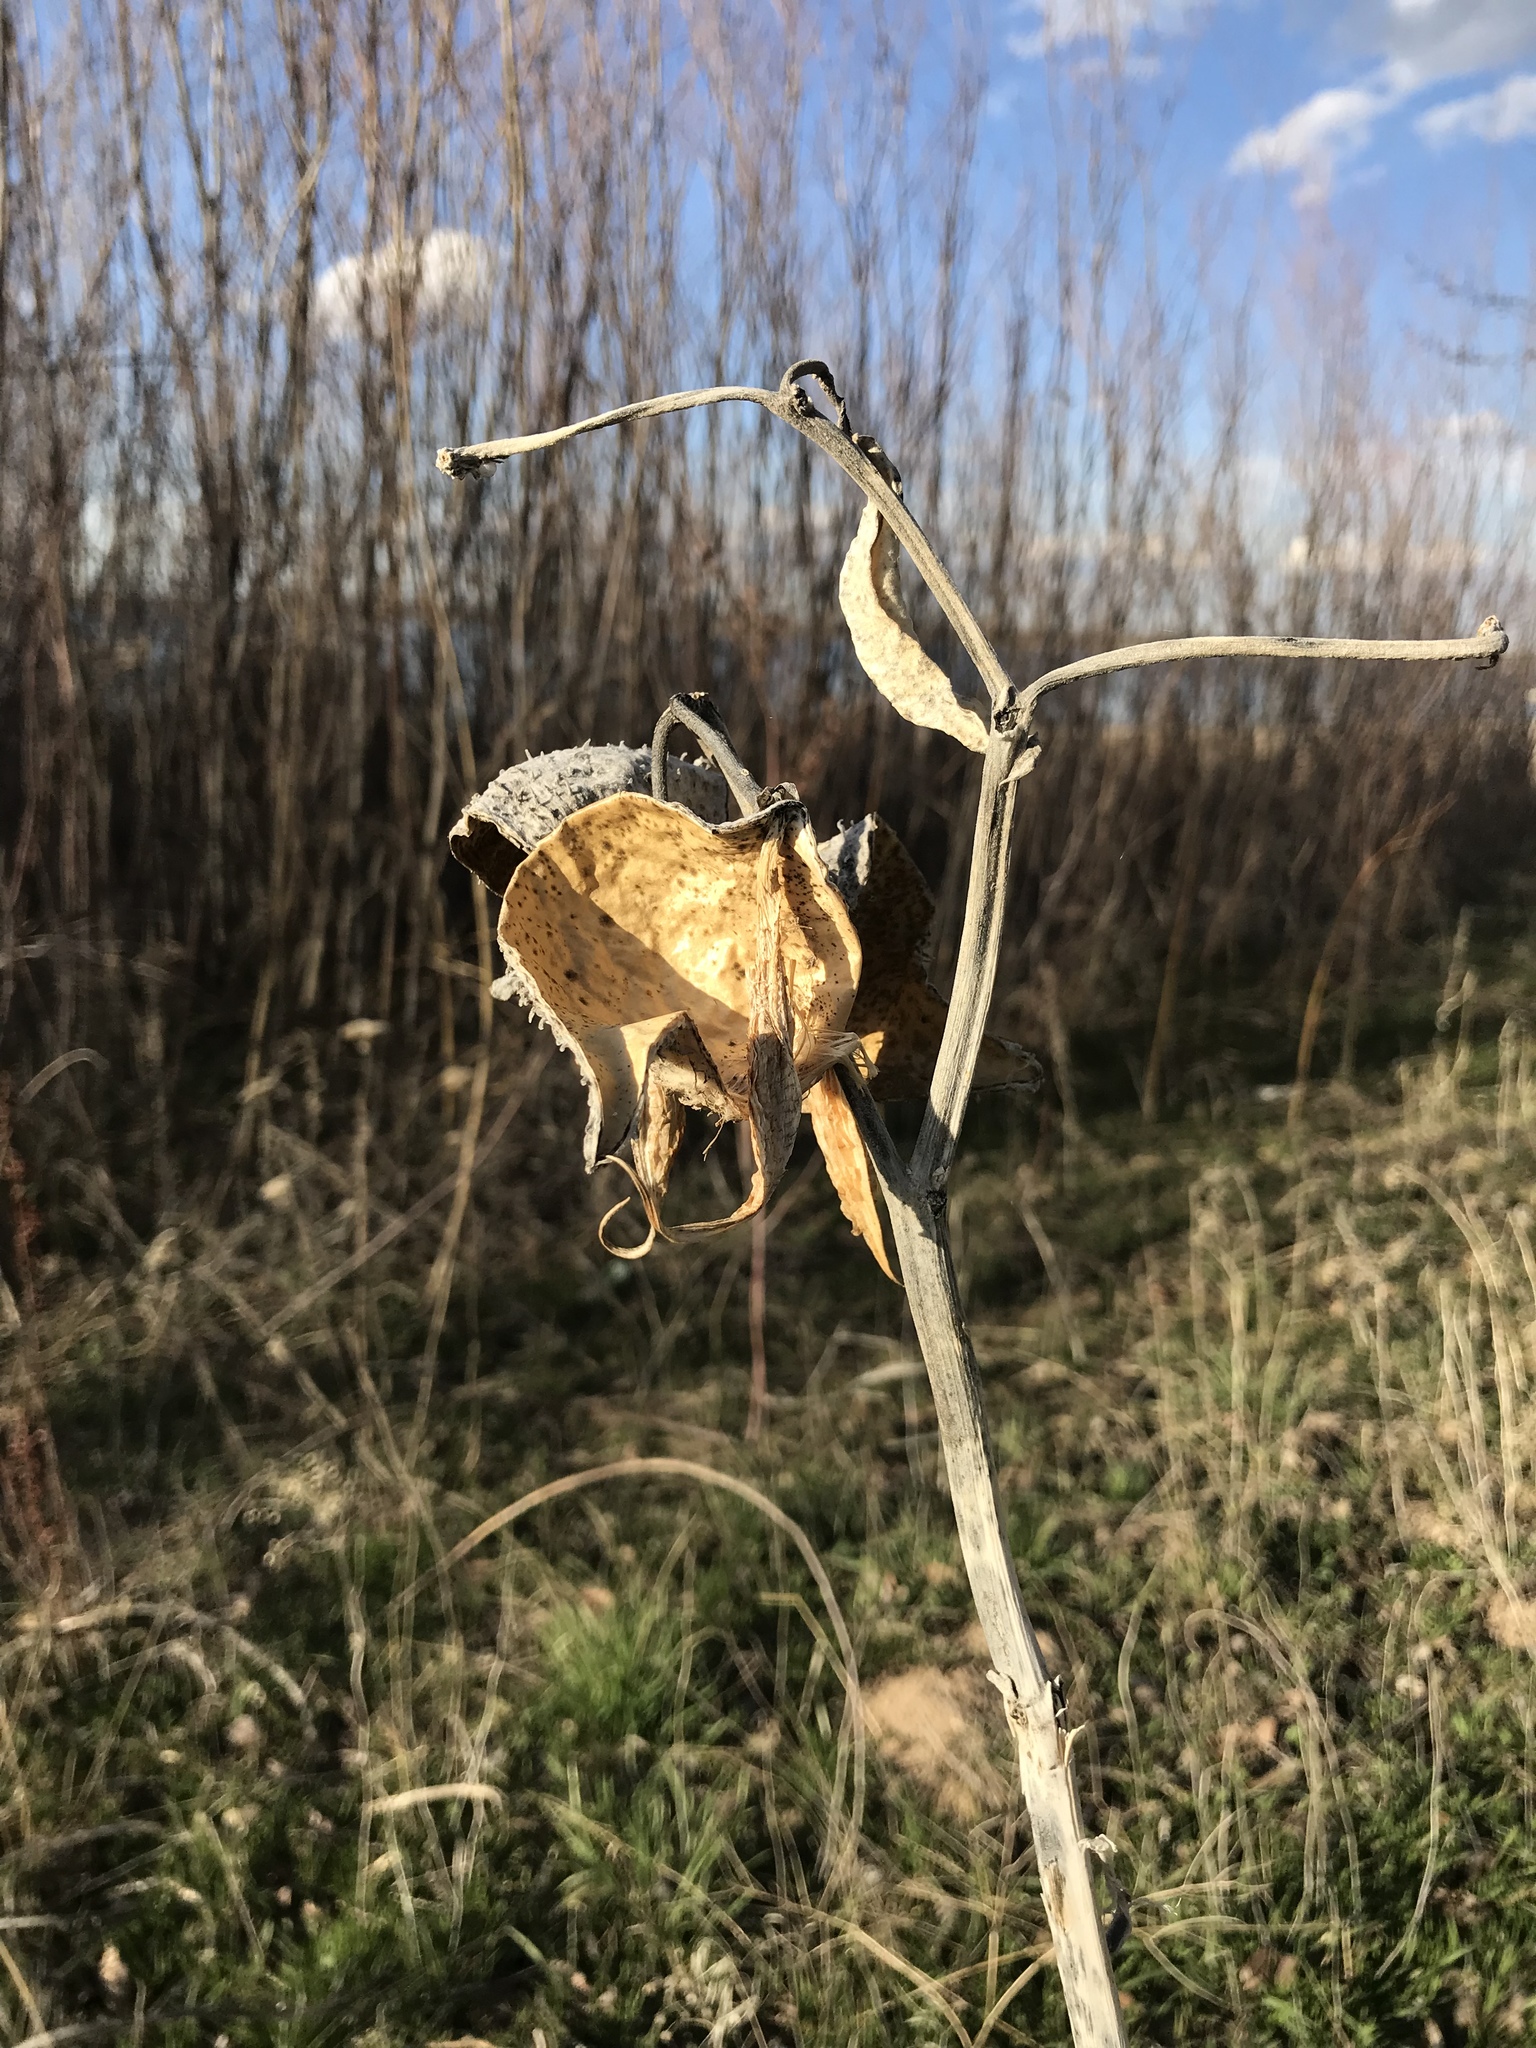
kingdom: Plantae
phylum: Tracheophyta
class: Magnoliopsida
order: Gentianales
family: Apocynaceae
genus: Asclepias
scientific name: Asclepias speciosa
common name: Showy milkweed
